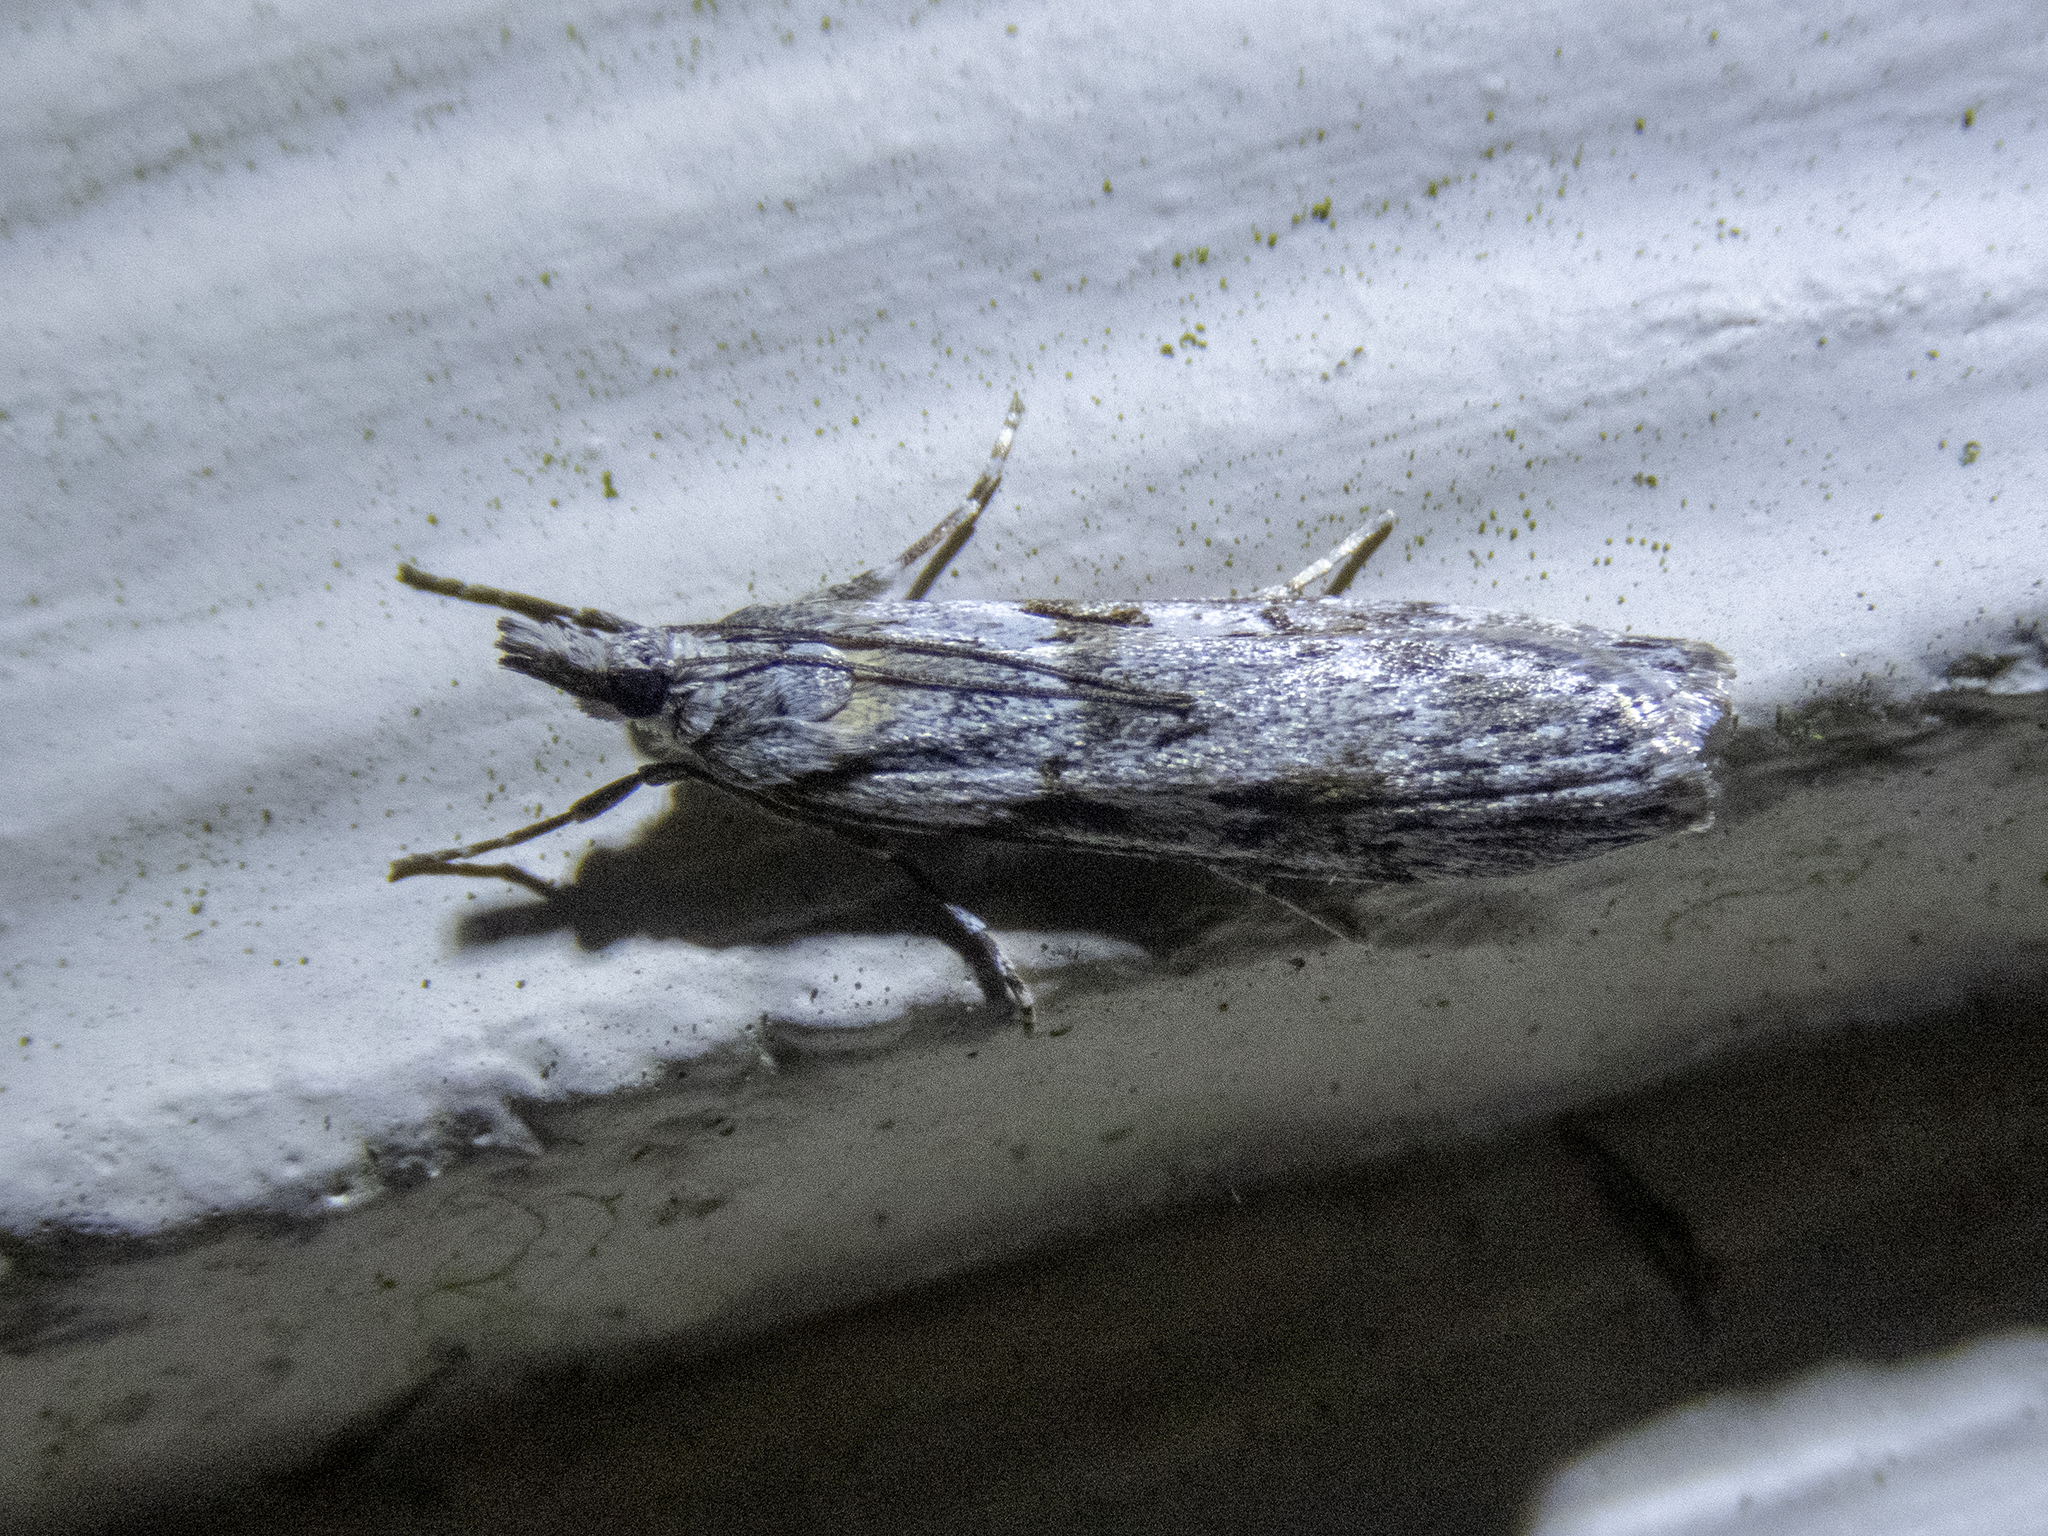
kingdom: Animalia
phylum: Arthropoda
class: Insecta
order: Lepidoptera
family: Crambidae
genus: Scoparia
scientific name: Scoparia halopis
